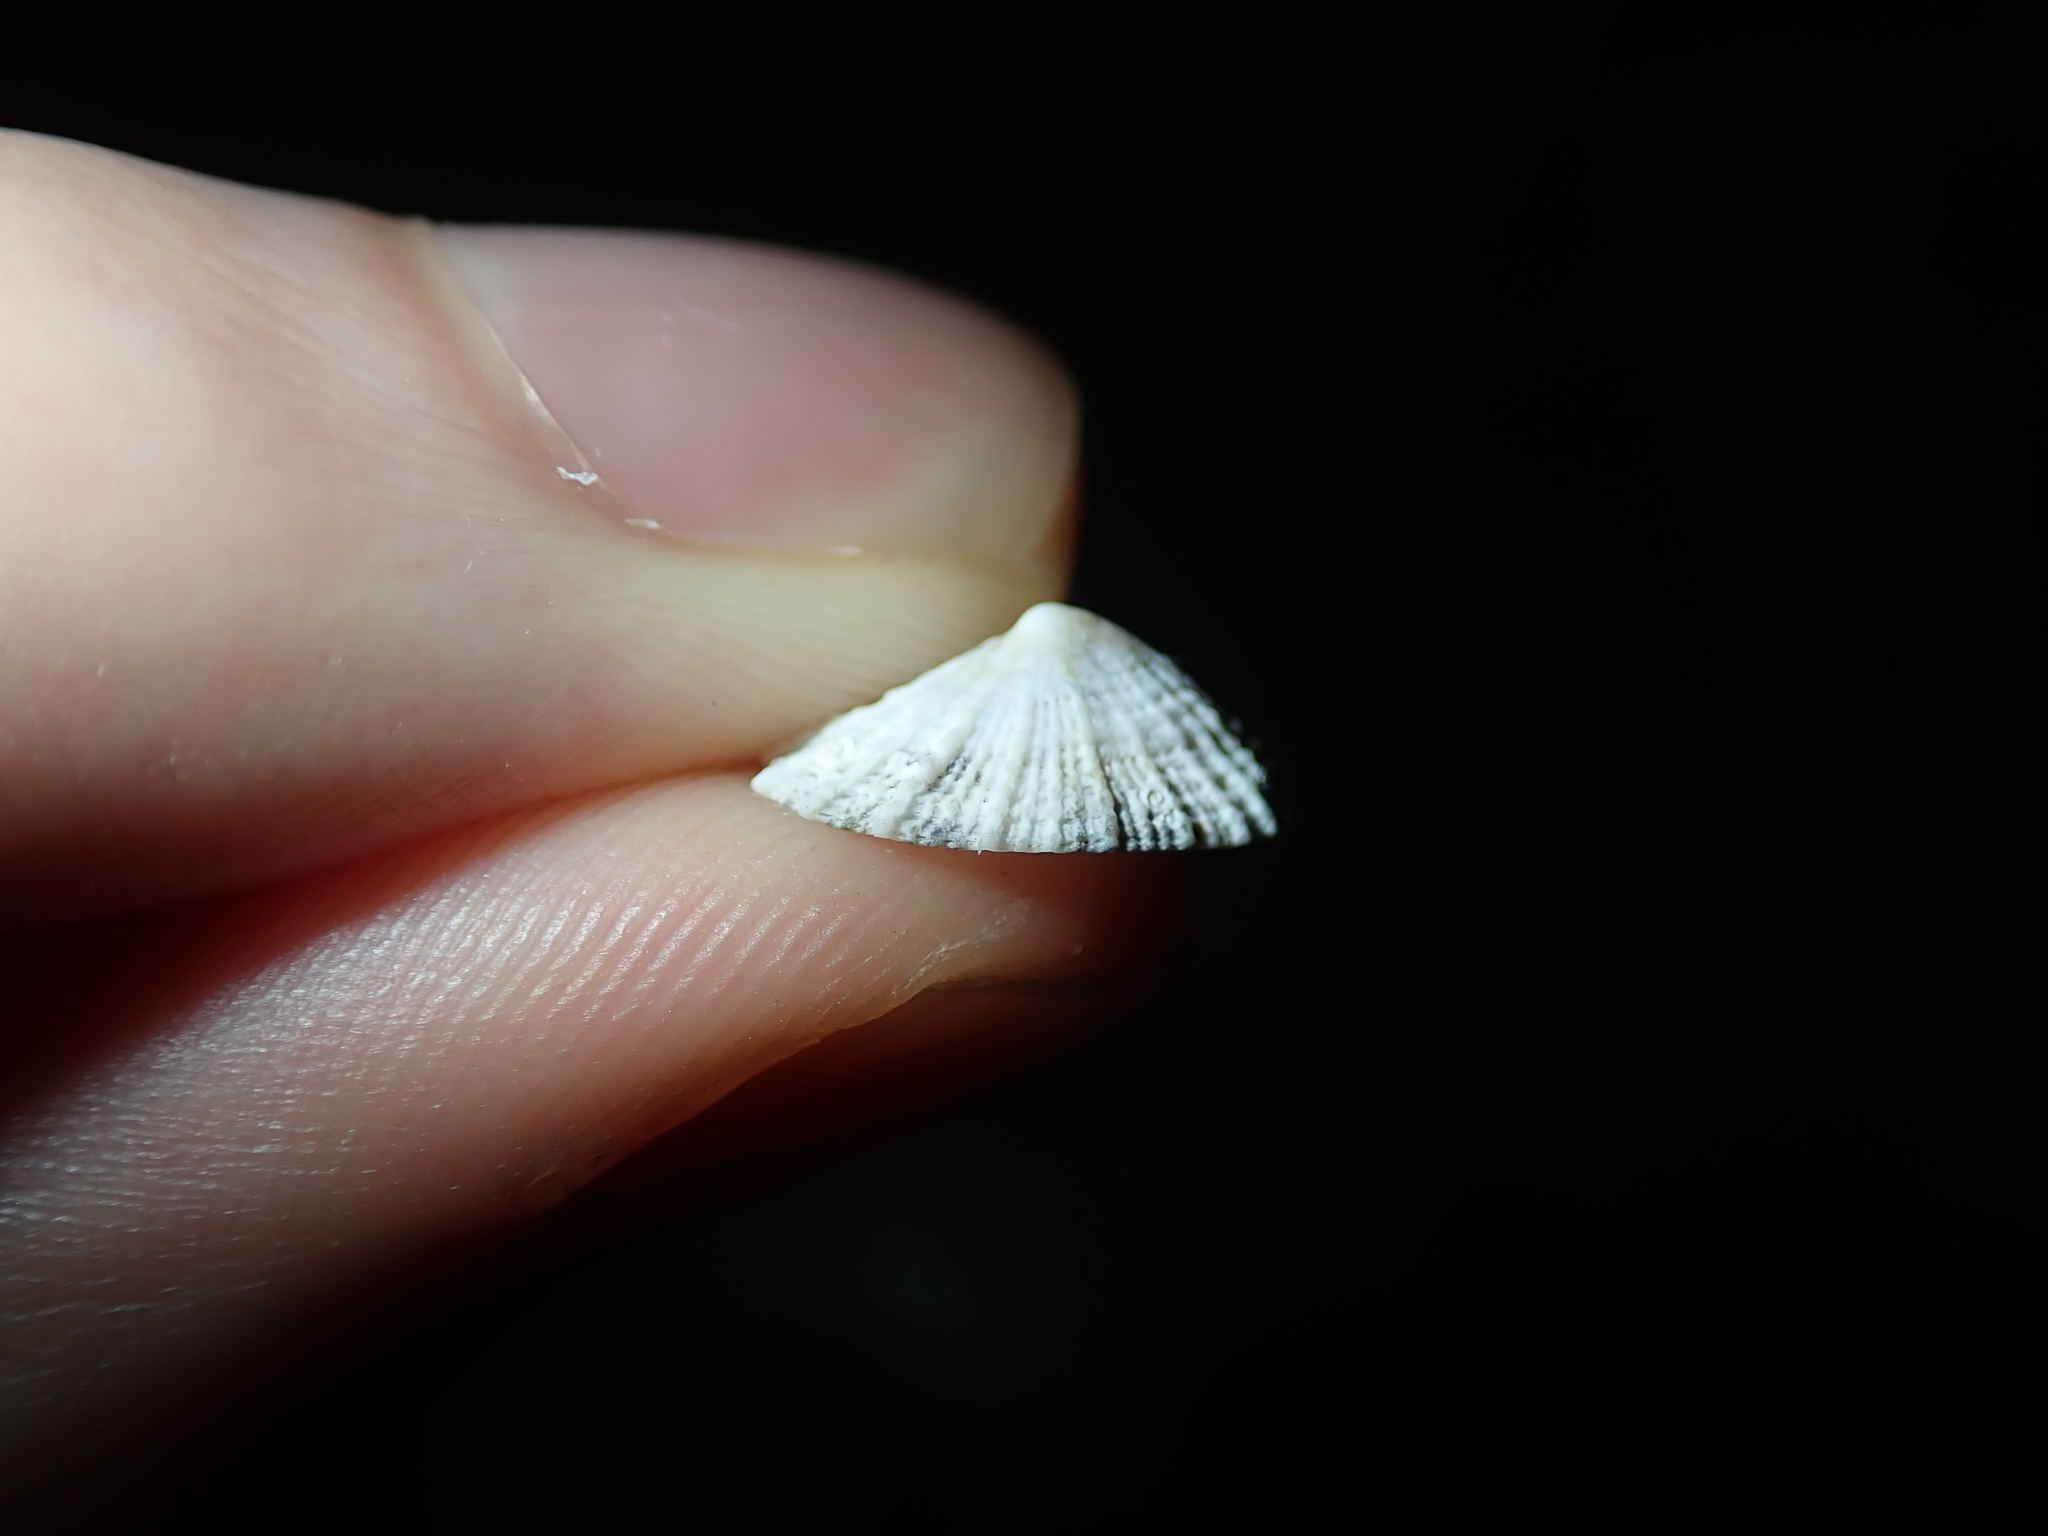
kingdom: Animalia
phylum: Mollusca
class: Gastropoda
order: Lepetellida
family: Fissurellidae
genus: Montfortula
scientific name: Montfortula rugosa
